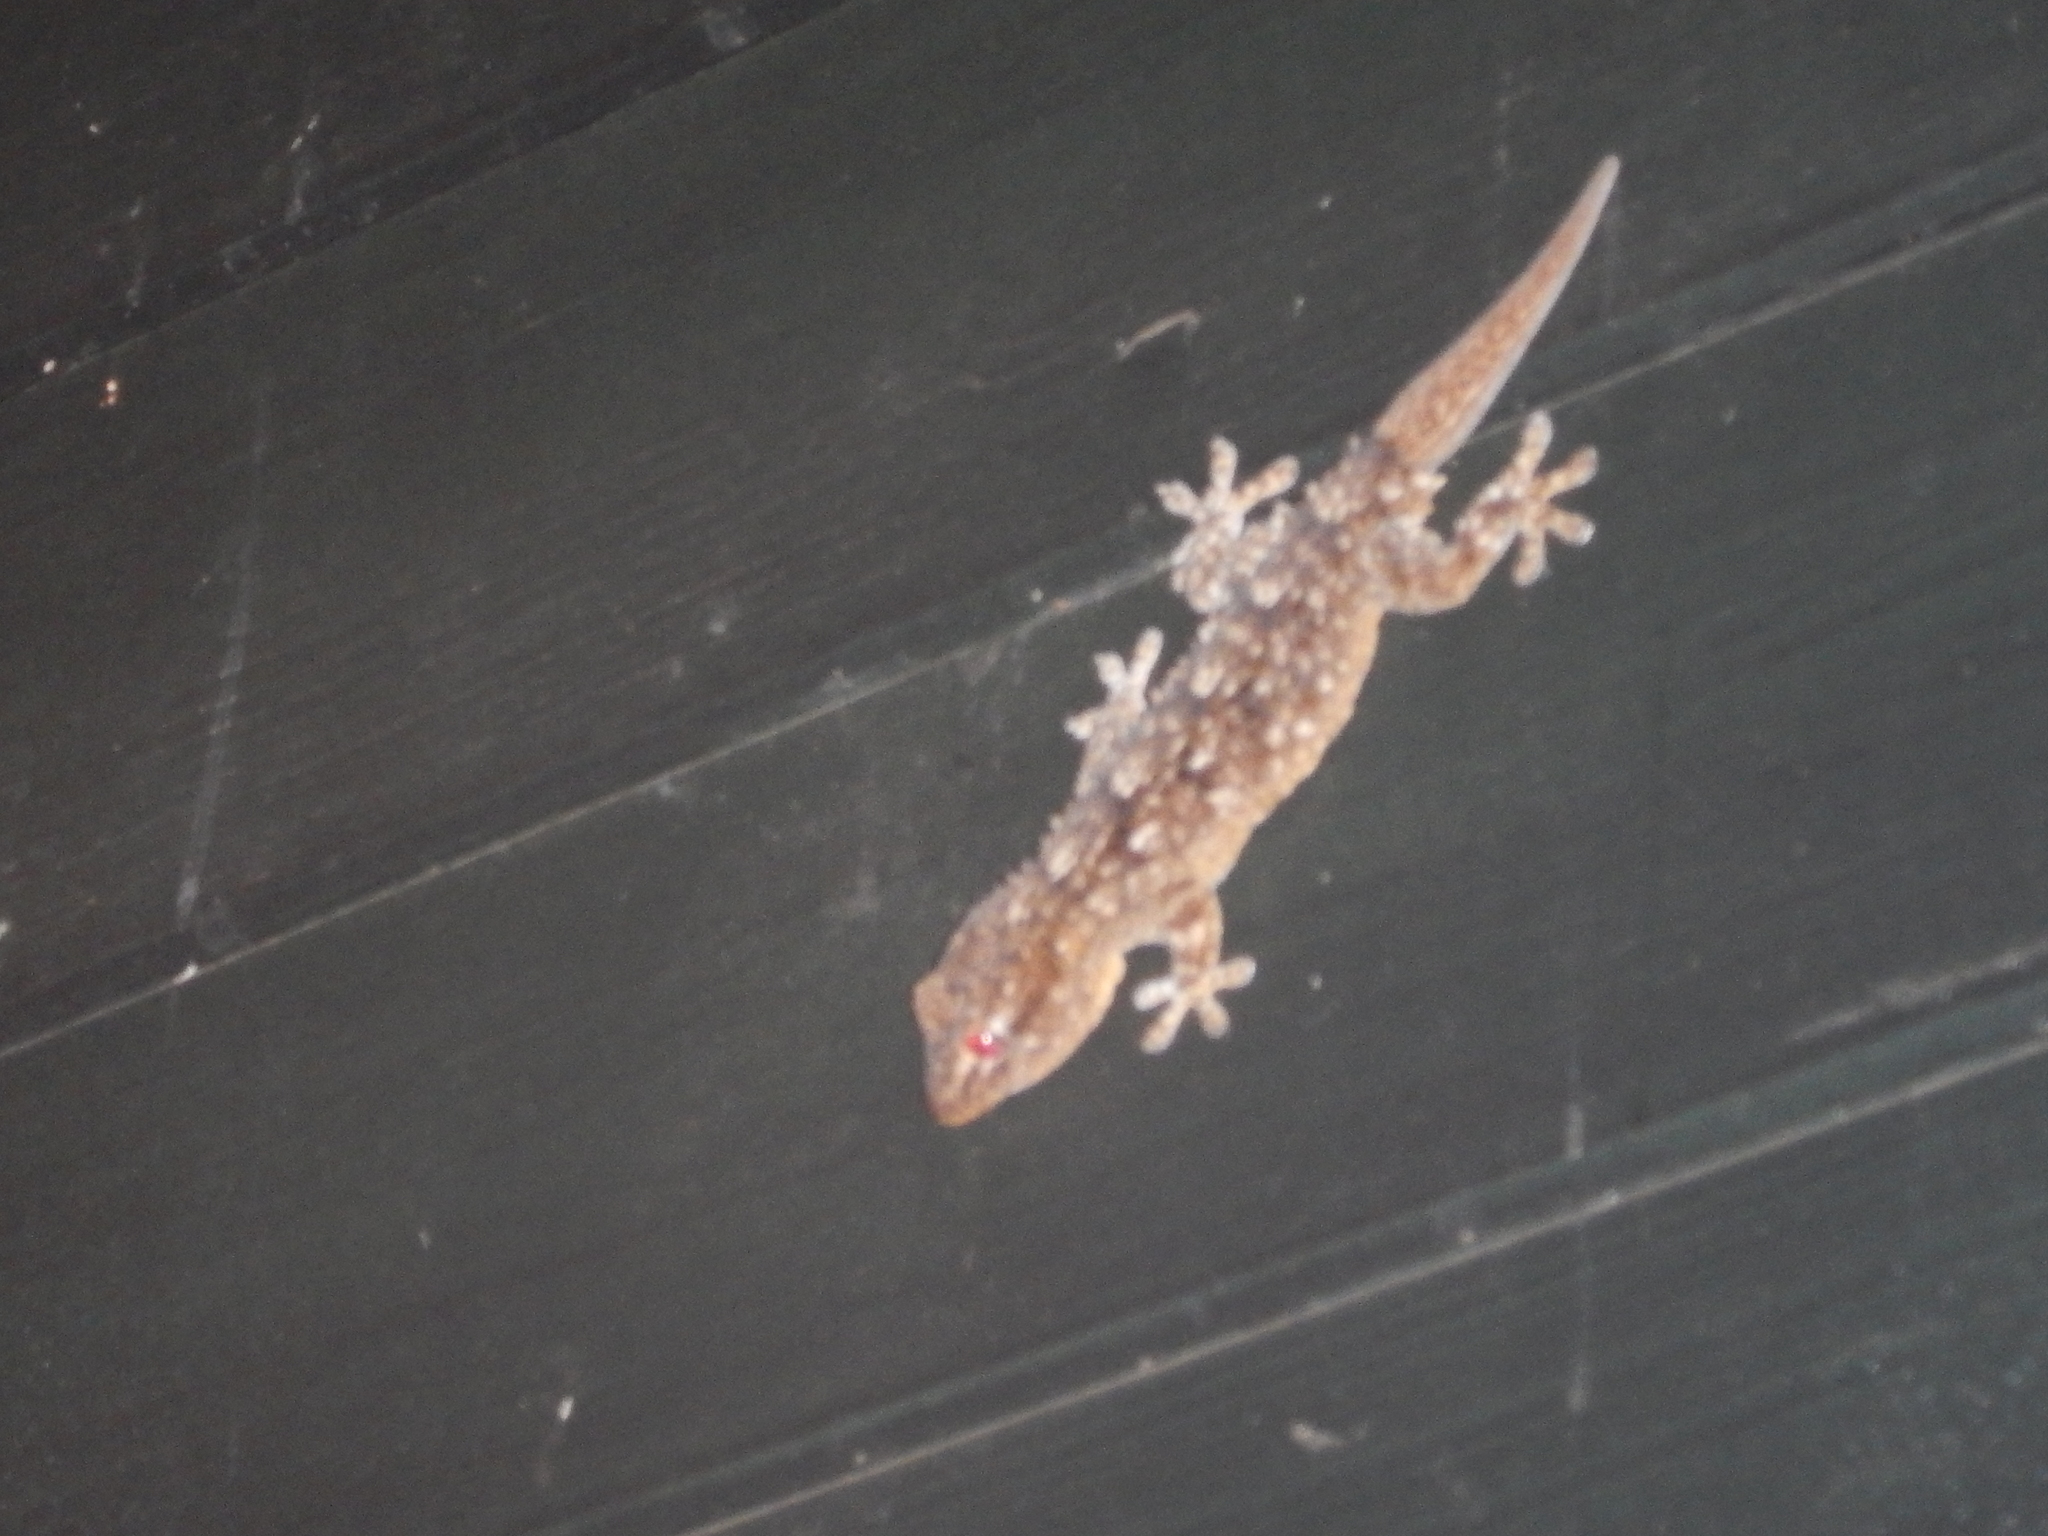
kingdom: Animalia
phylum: Chordata
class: Squamata
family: Phyllodactylidae
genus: Tarentola
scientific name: Tarentola mauritanica
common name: Moorish gecko
